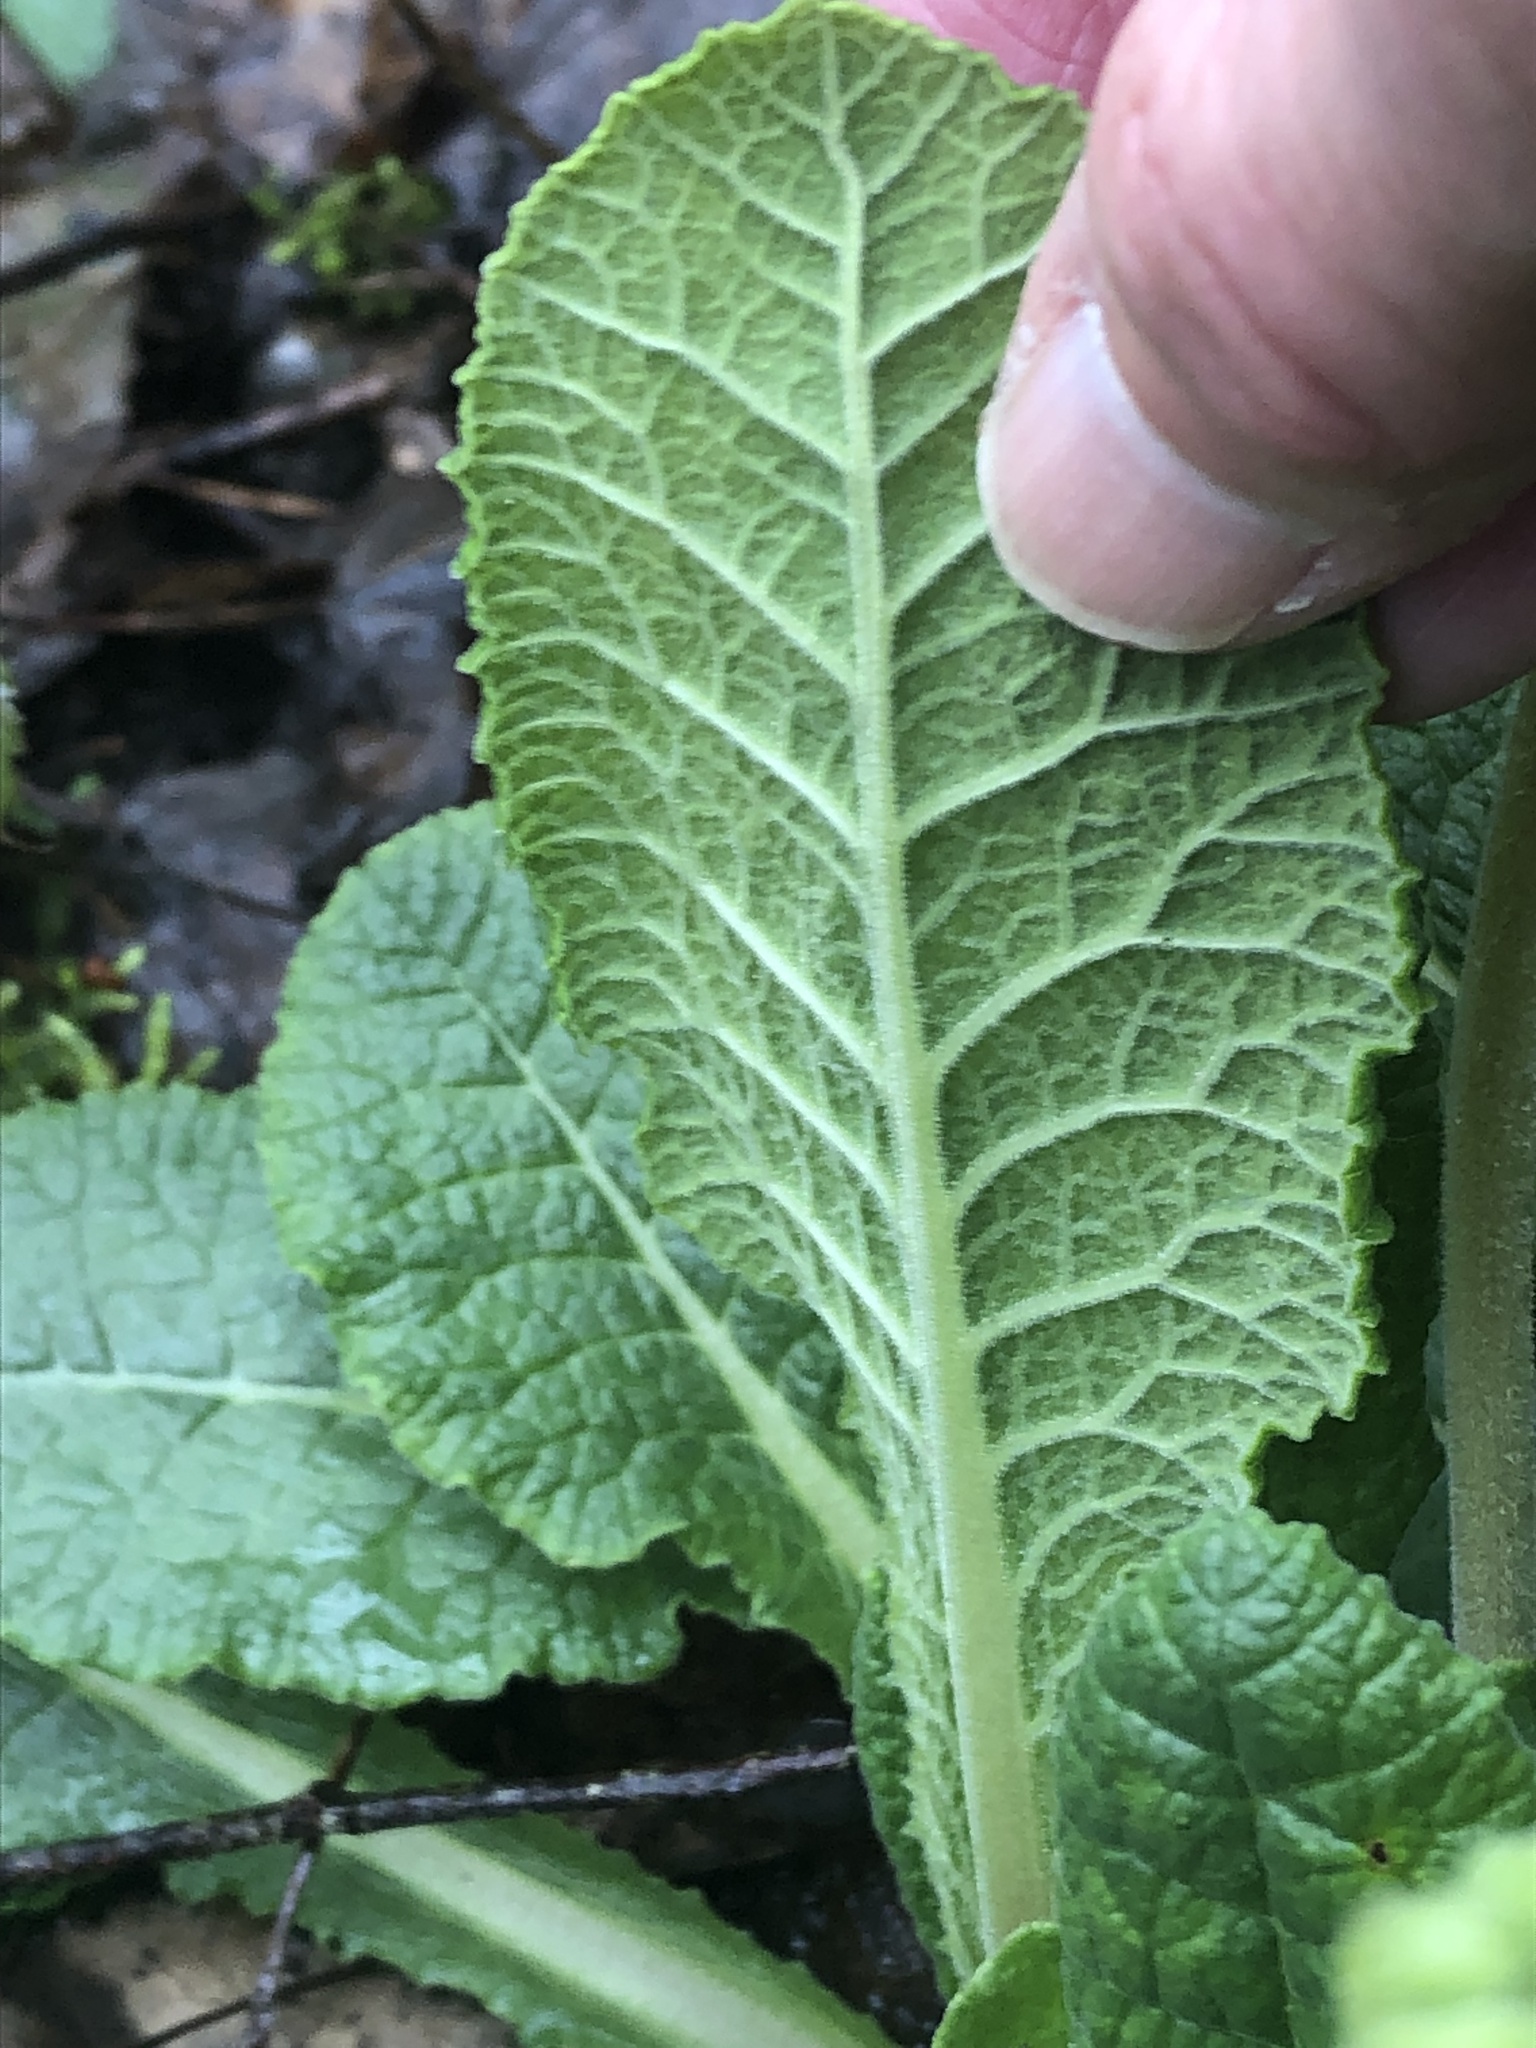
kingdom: Plantae
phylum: Tracheophyta
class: Magnoliopsida
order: Ericales
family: Primulaceae
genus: Primula
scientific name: Primula veris
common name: Cowslip
